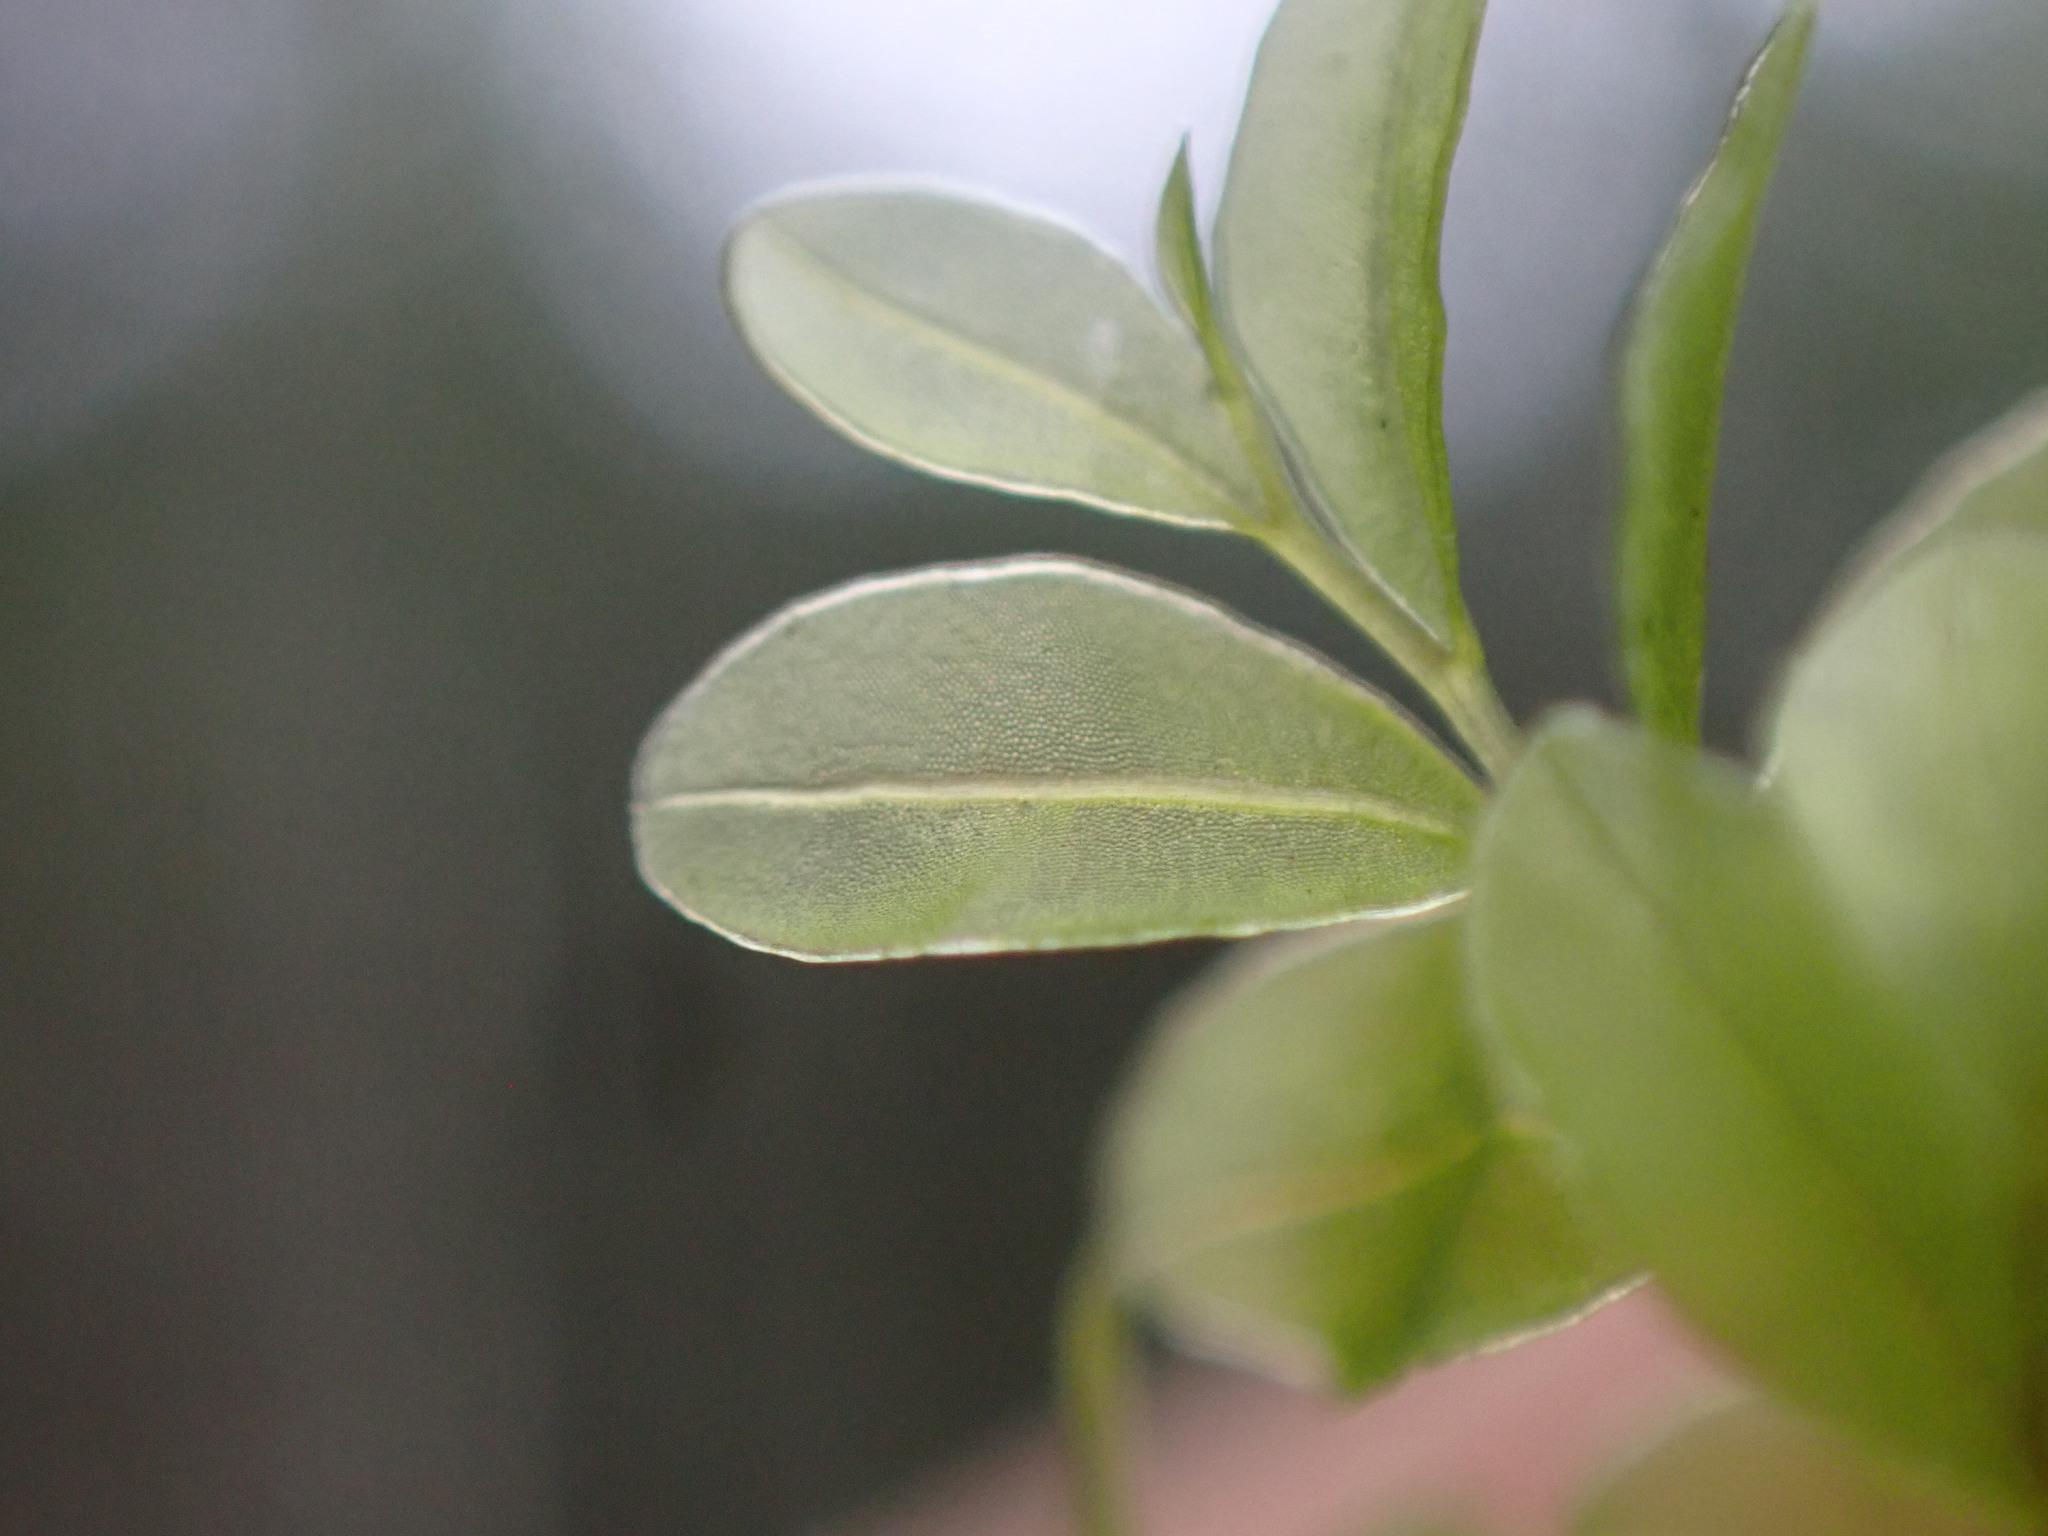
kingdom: Plantae
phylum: Bryophyta
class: Bryopsida
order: Bryales
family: Mniaceae
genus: Rhizomnium
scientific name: Rhizomnium glabrescens
